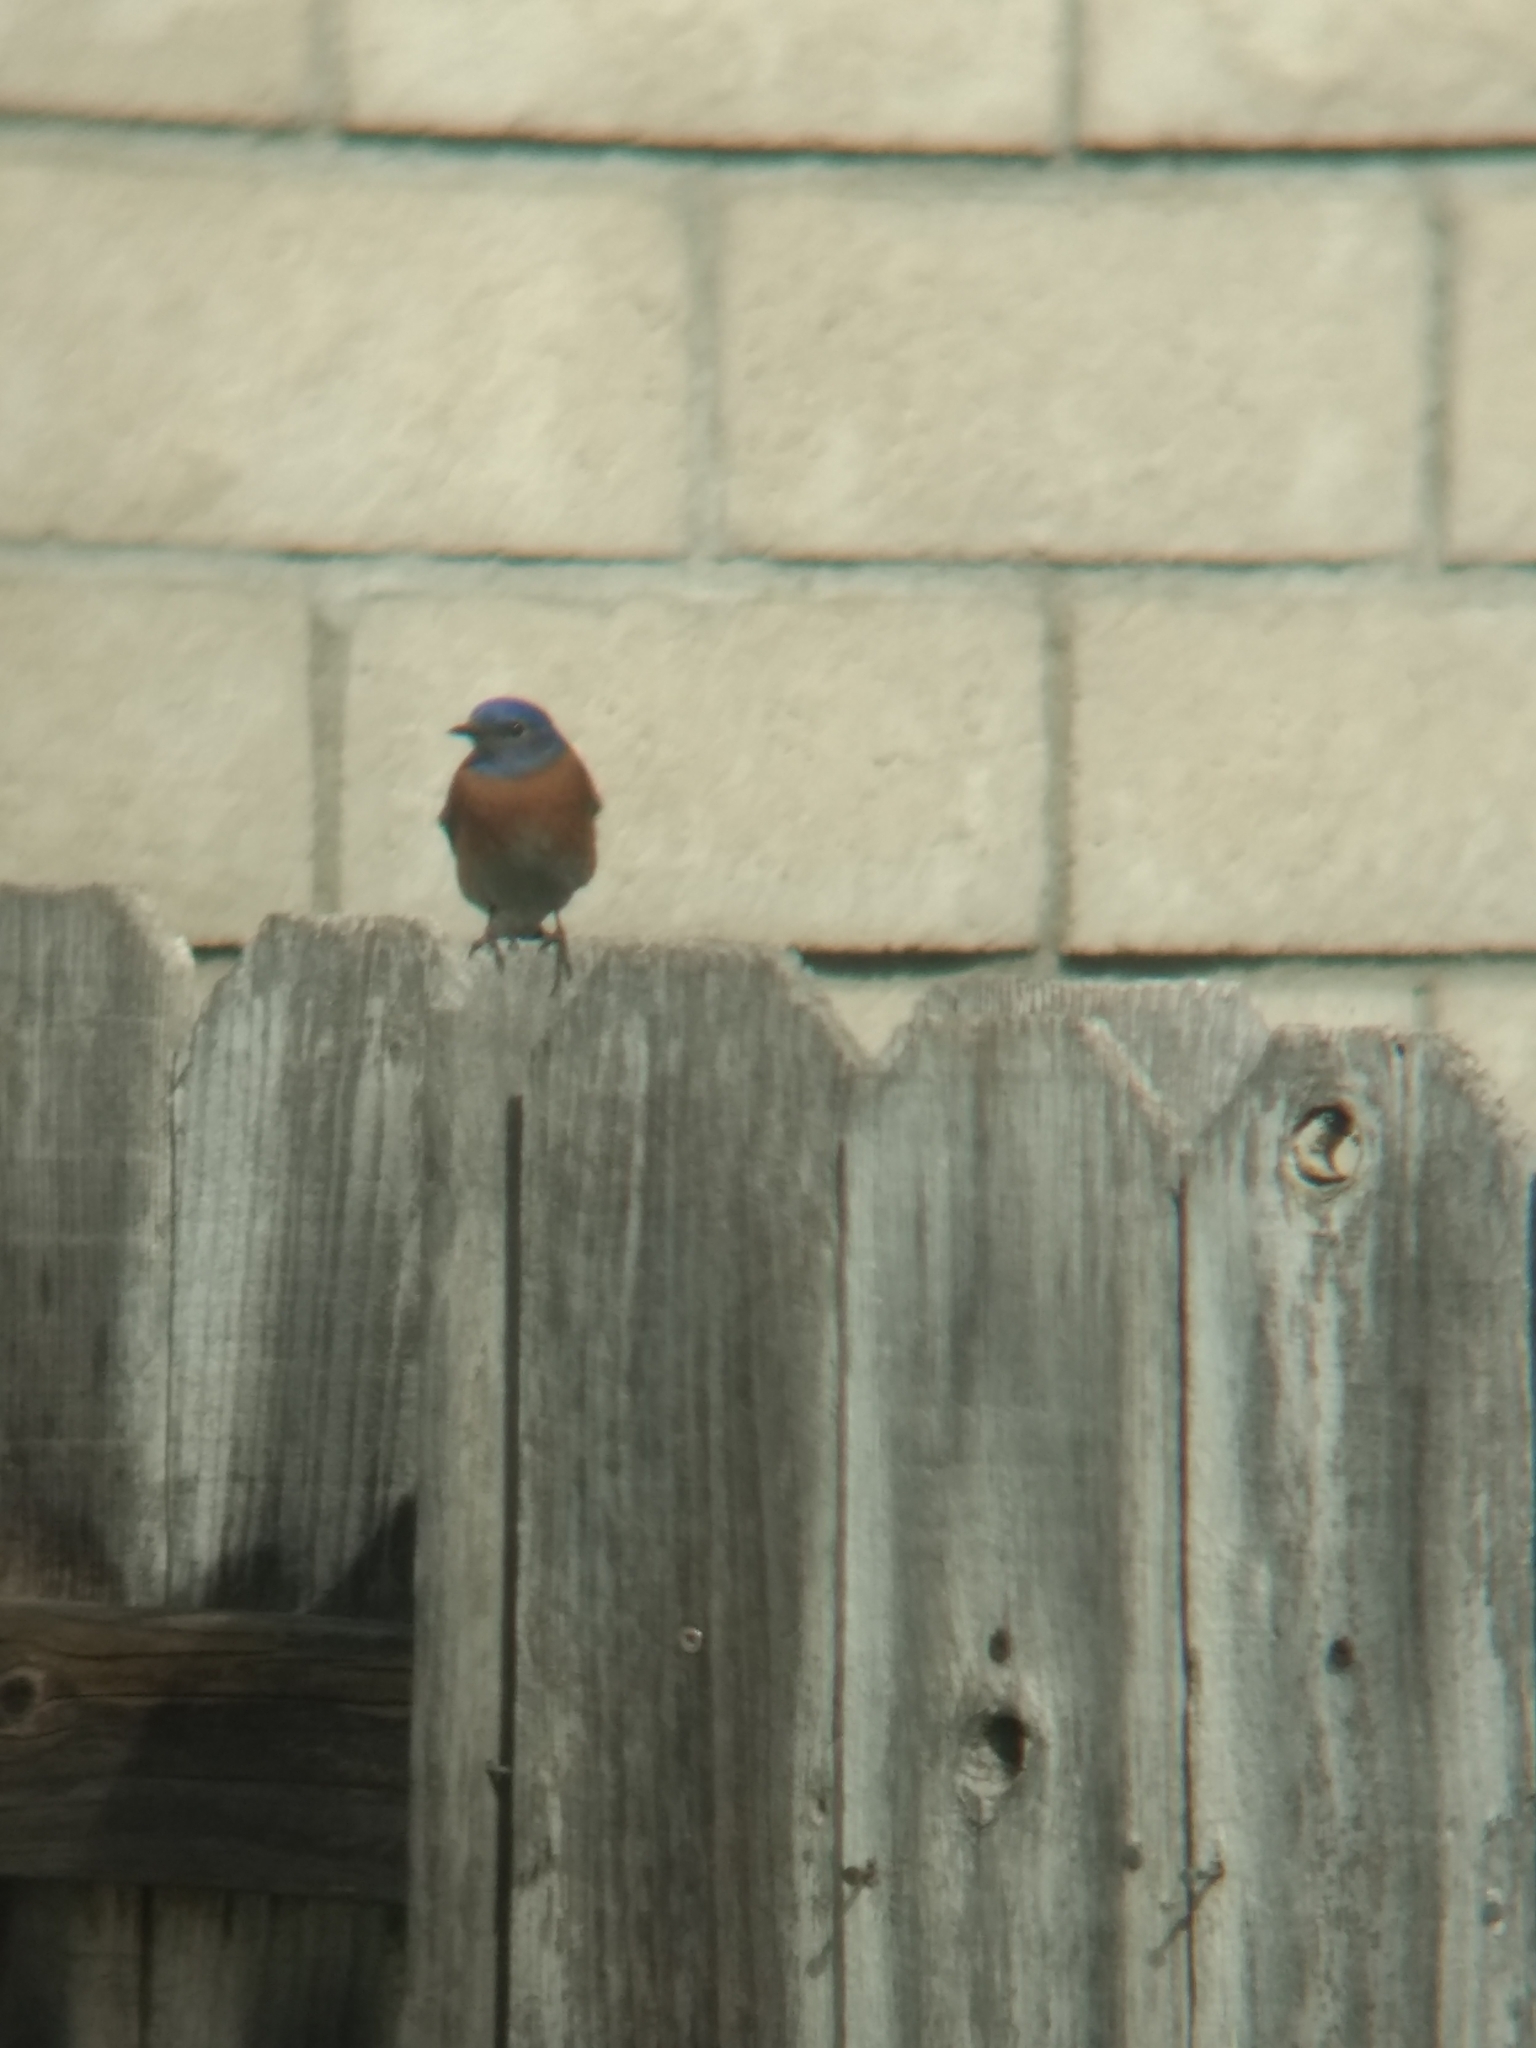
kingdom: Animalia
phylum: Chordata
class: Aves
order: Passeriformes
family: Turdidae
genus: Sialia
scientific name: Sialia mexicana
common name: Western bluebird
